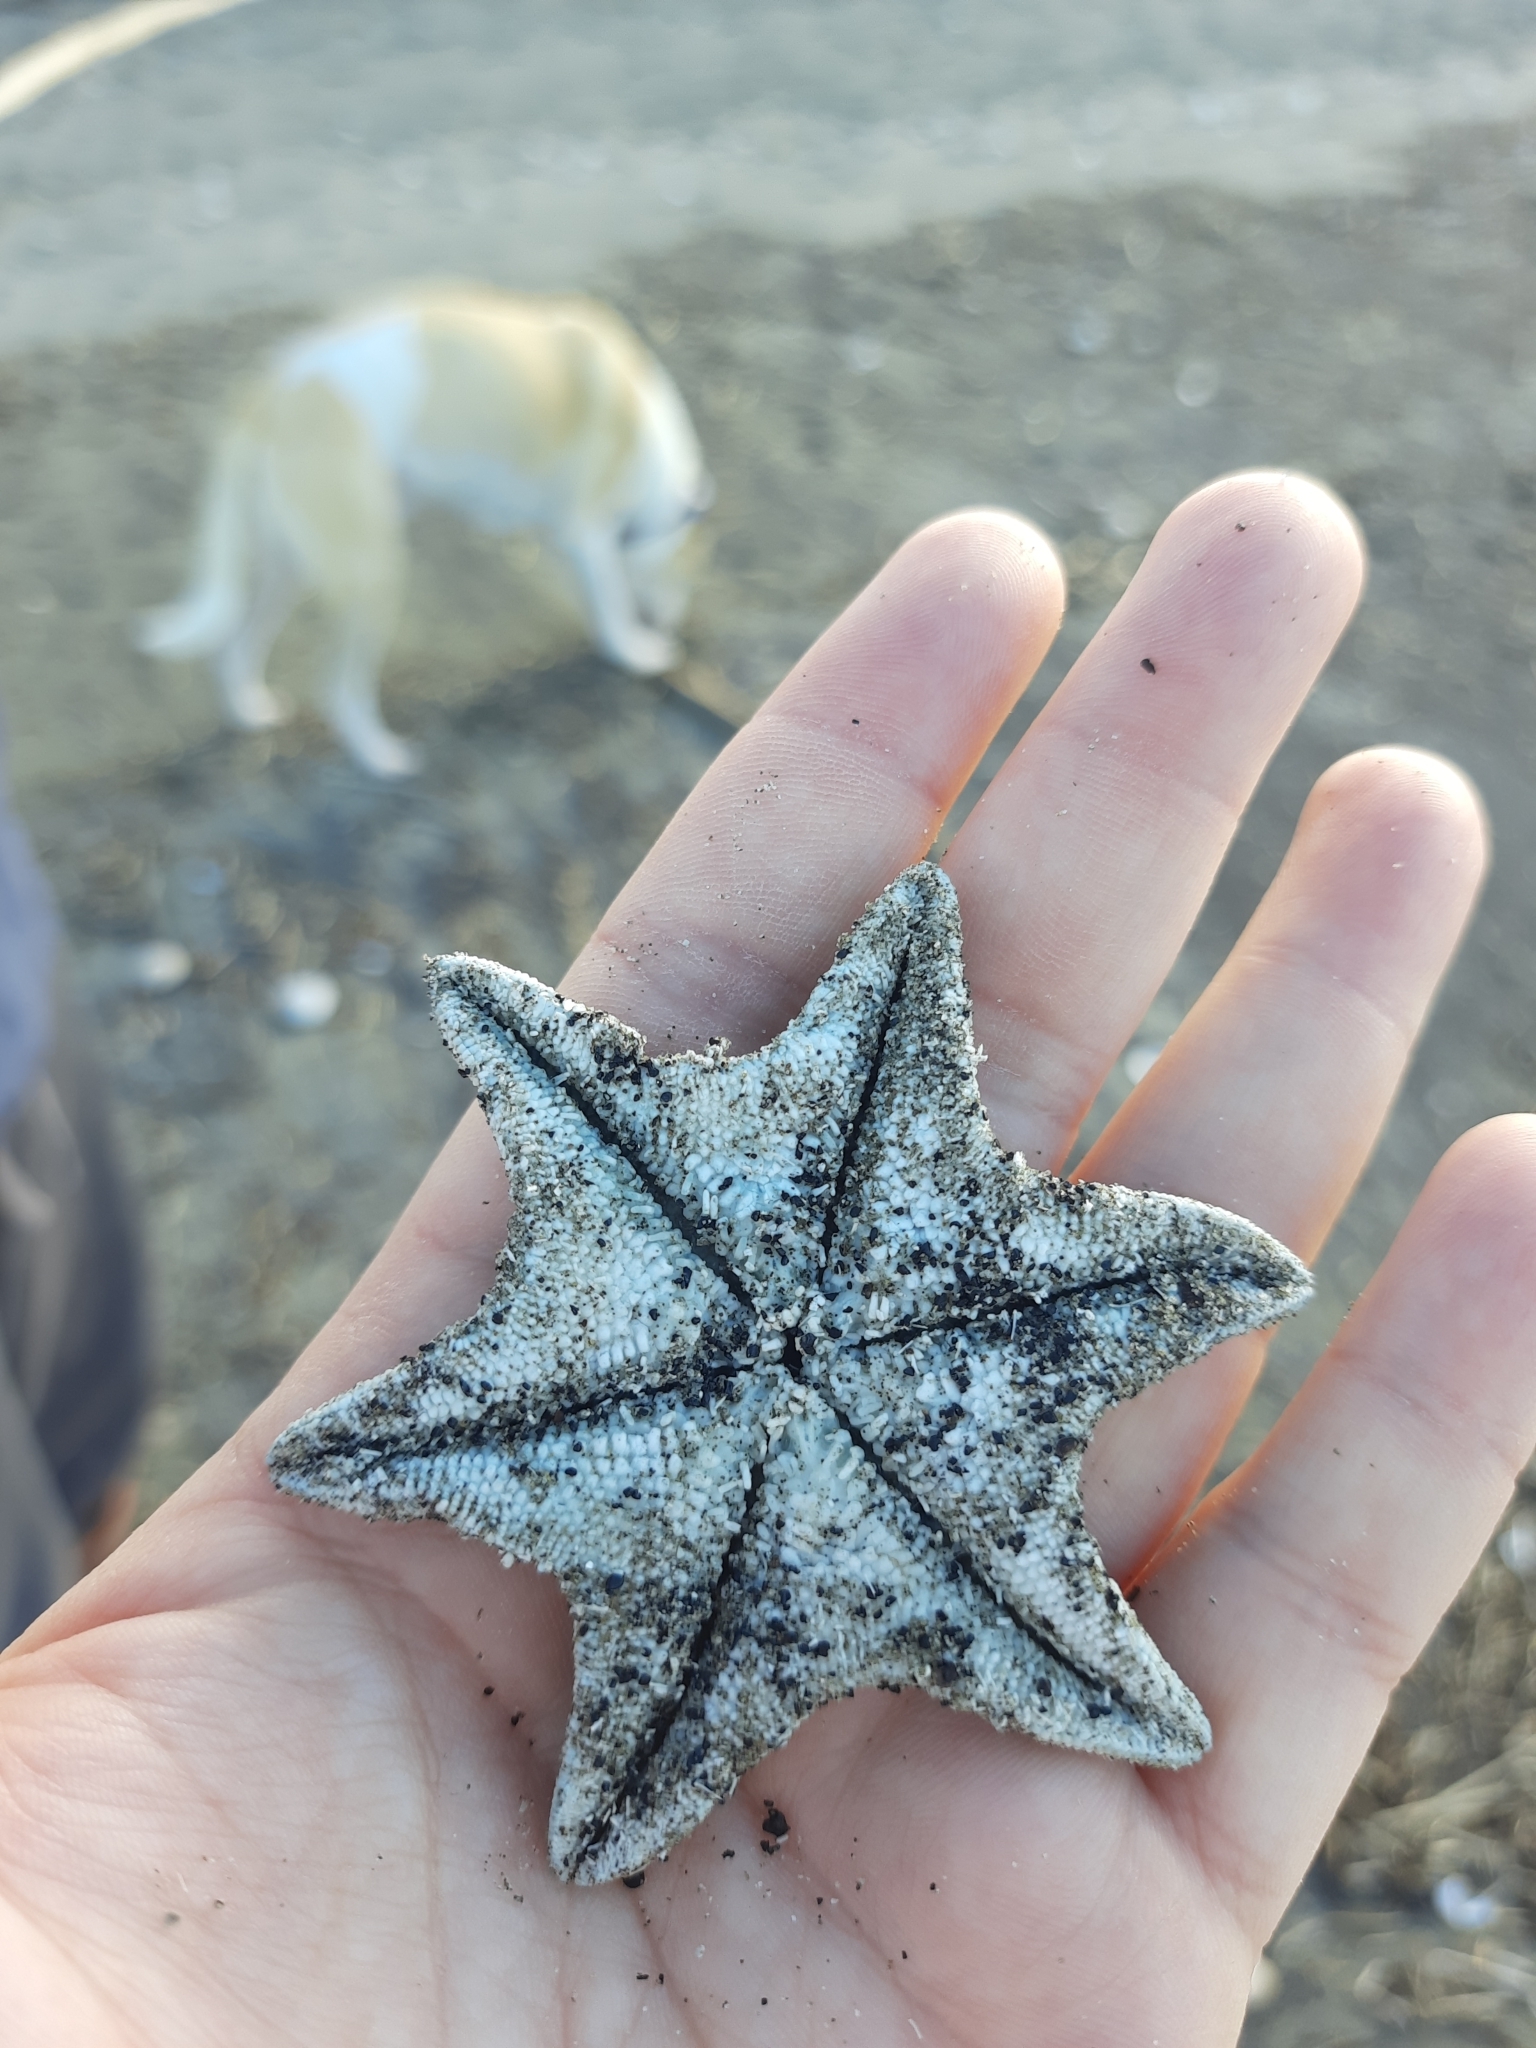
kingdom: Animalia
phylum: Echinodermata
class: Asteroidea
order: Valvatida
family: Asterinidae
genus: Patiriella
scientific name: Patiriella regularis
